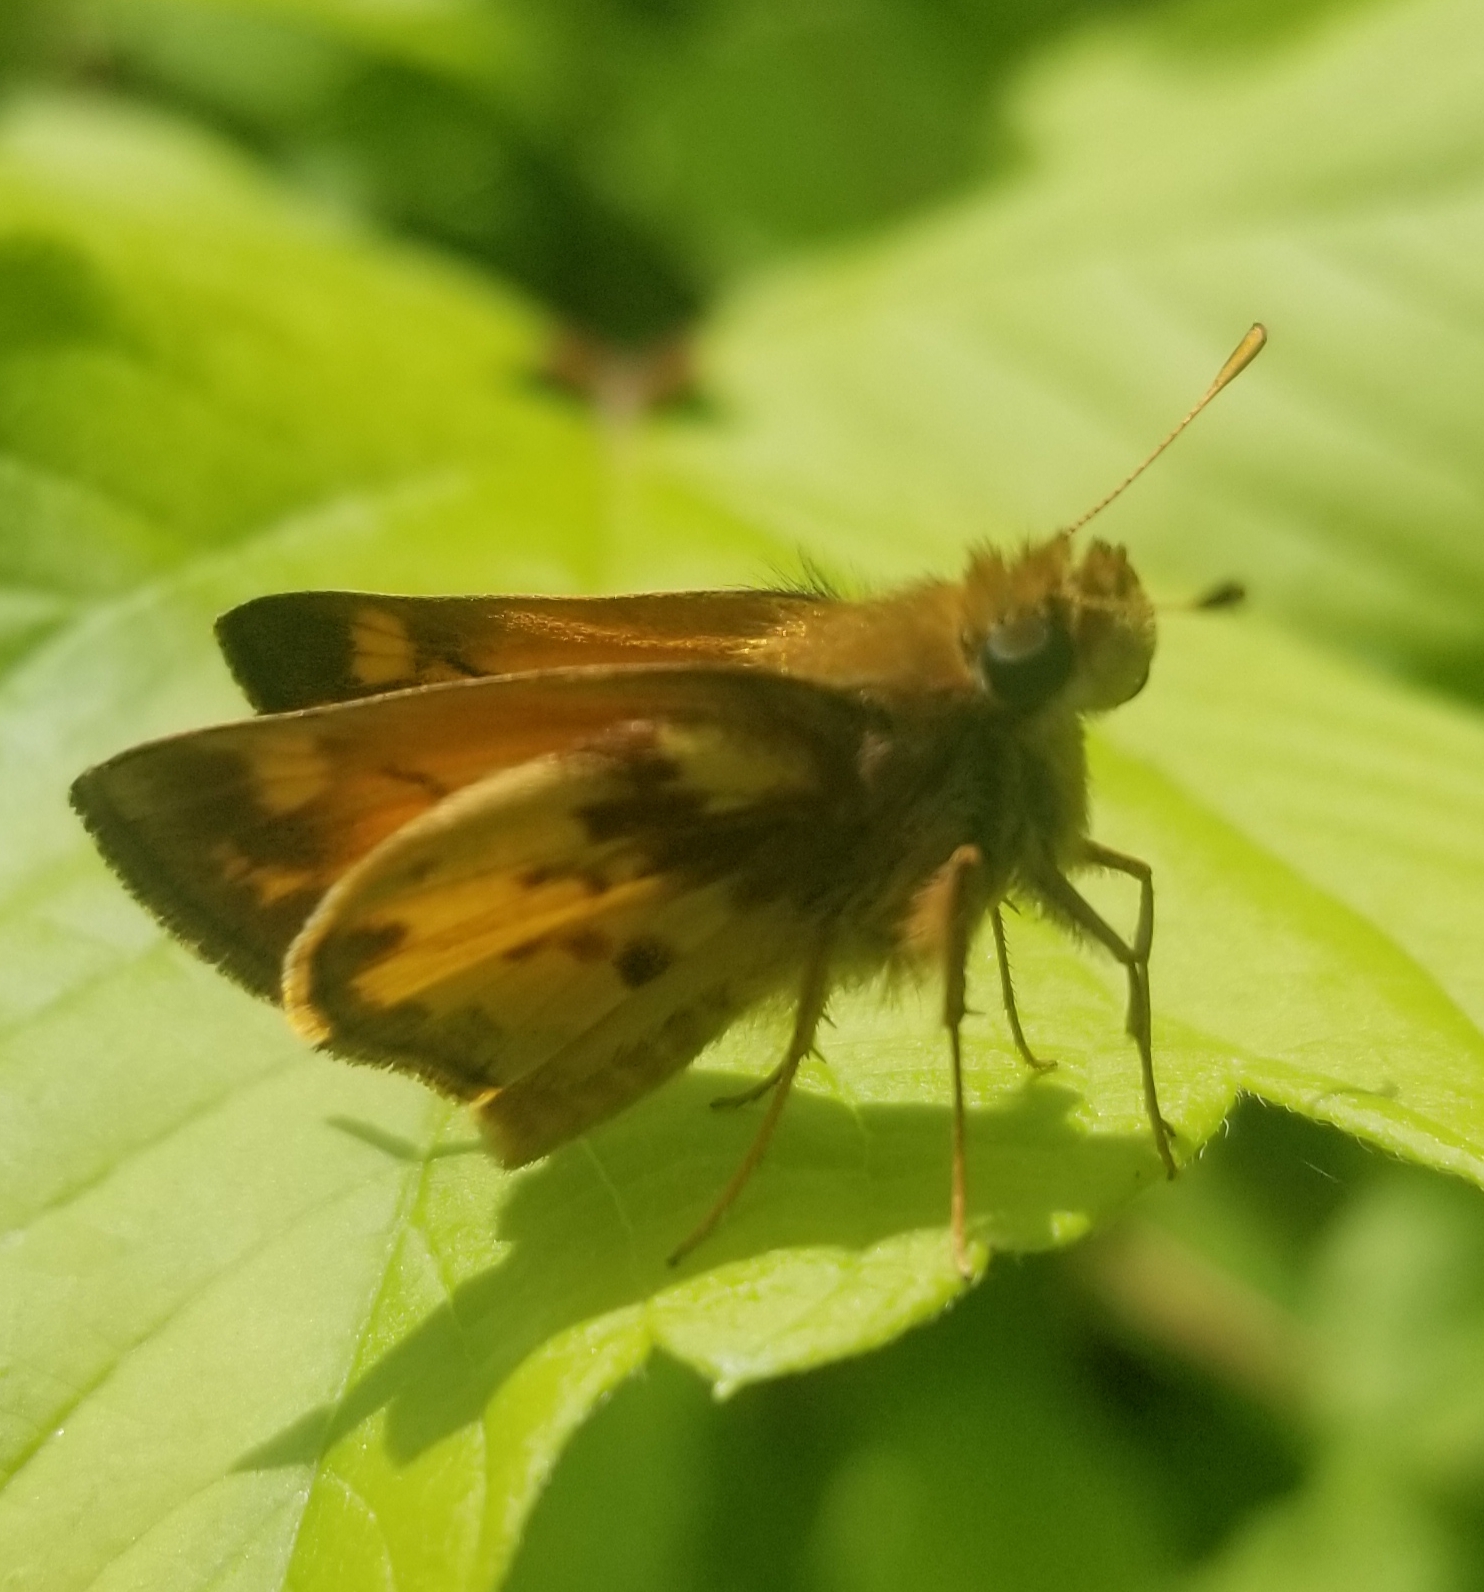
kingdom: Animalia
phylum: Arthropoda
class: Insecta
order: Lepidoptera
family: Hesperiidae
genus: Lon
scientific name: Lon zabulon
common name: Zabulon skipper
